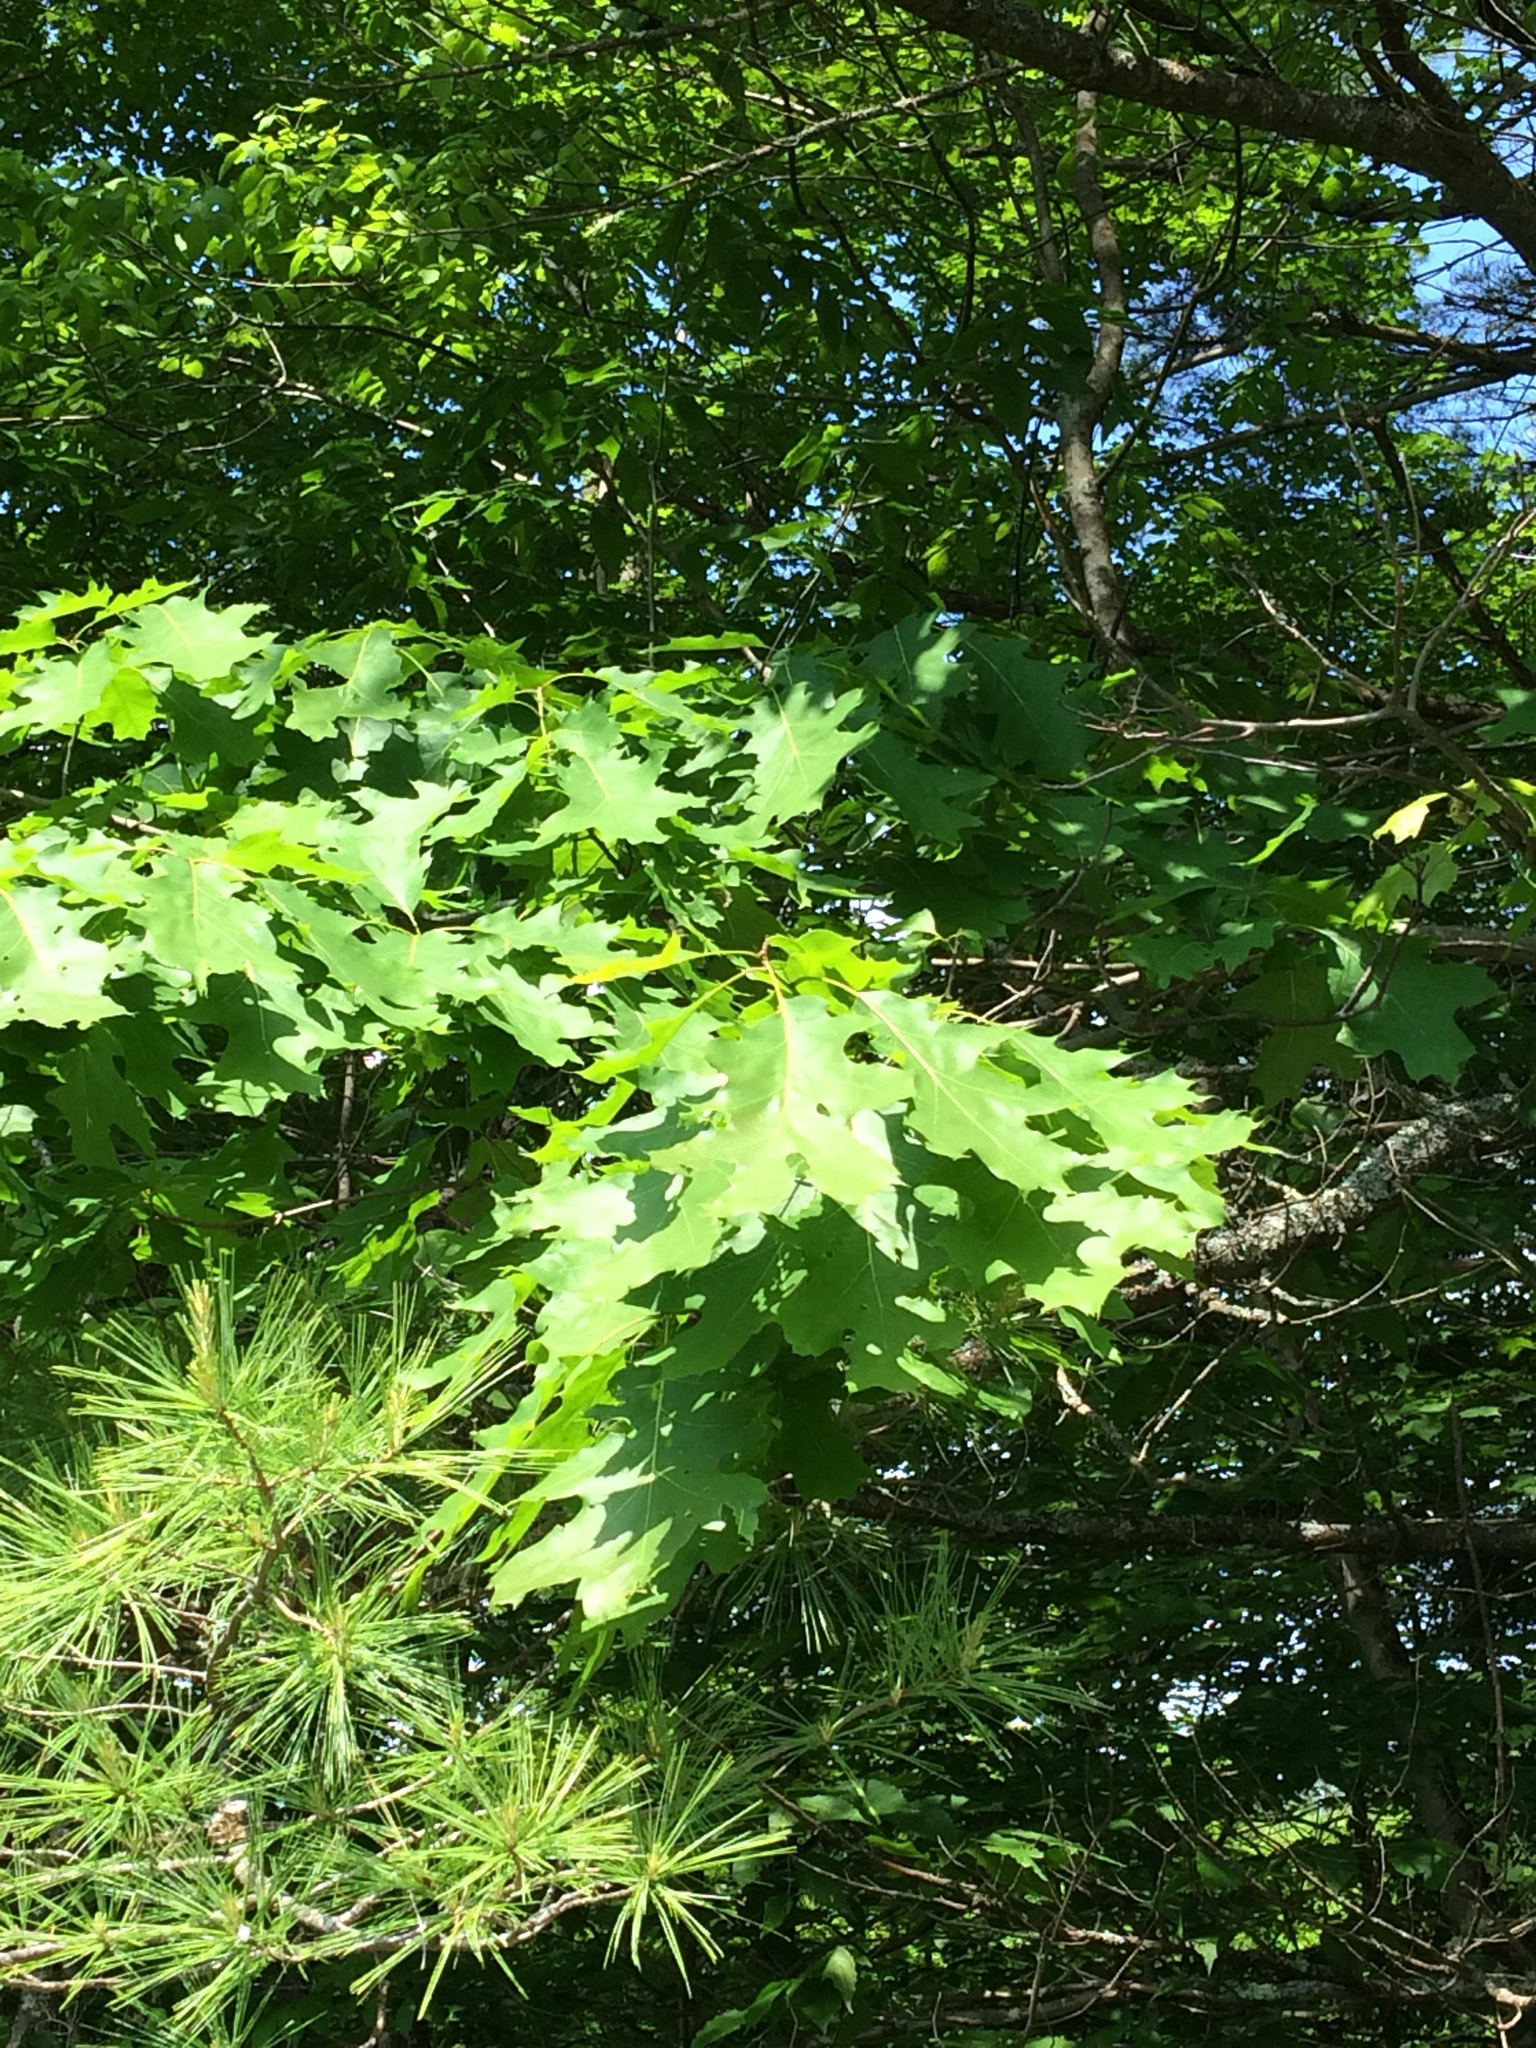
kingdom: Plantae
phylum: Tracheophyta
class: Magnoliopsida
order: Fagales
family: Fagaceae
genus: Quercus
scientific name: Quercus rubra
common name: Red oak
